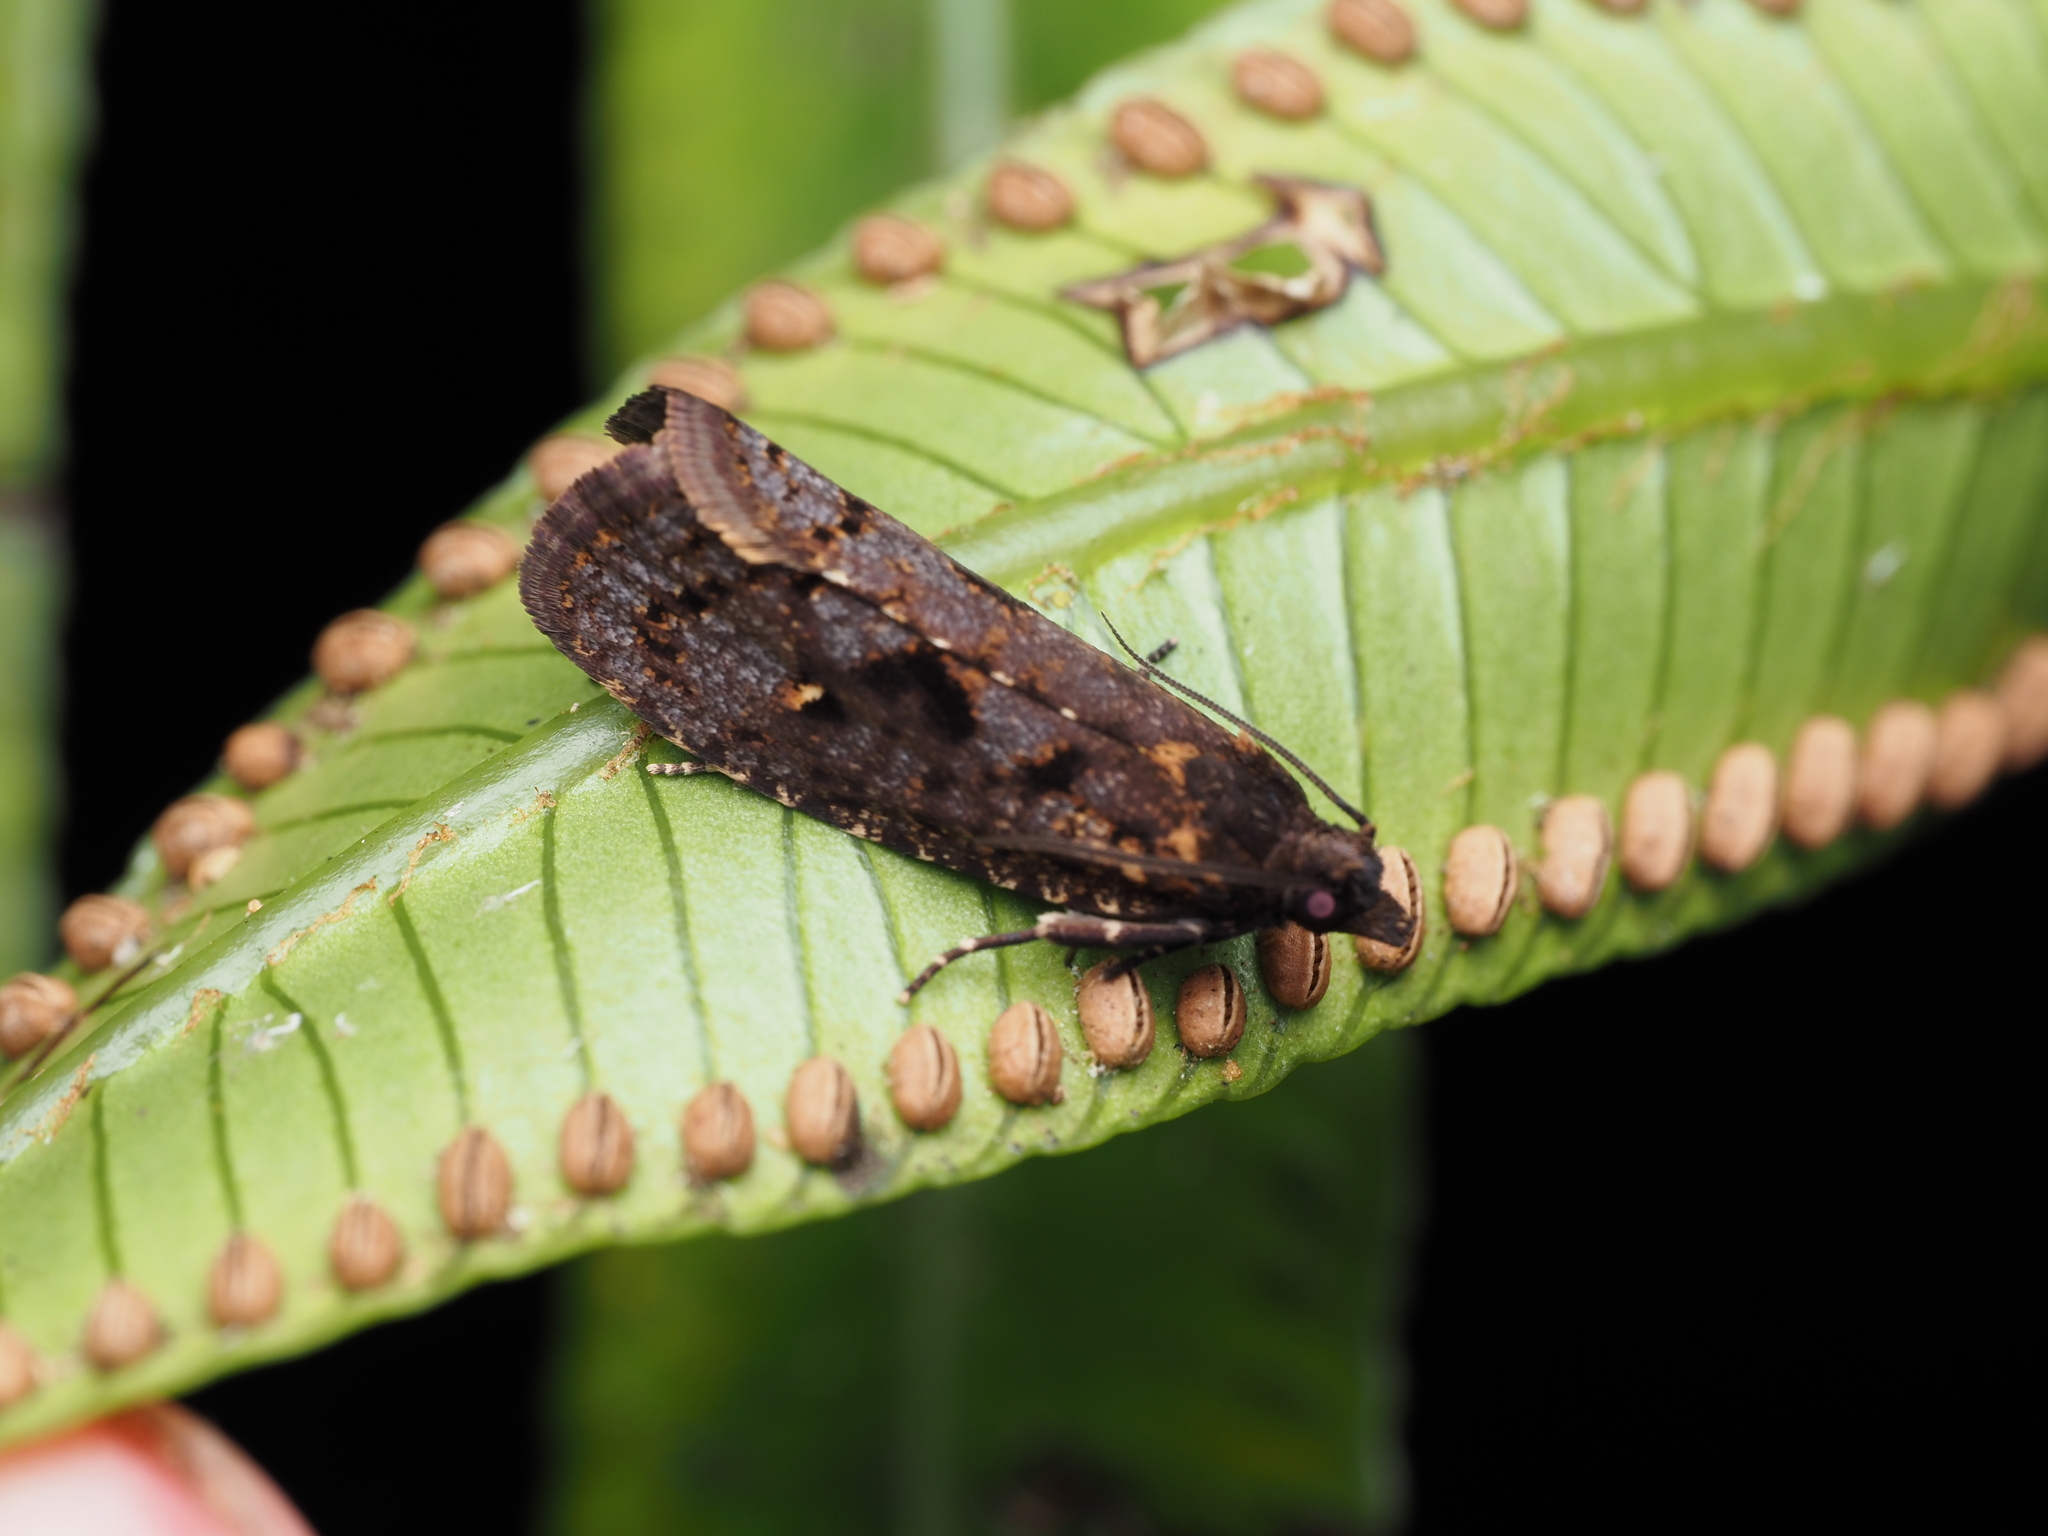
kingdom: Animalia
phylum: Arthropoda
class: Insecta
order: Lepidoptera
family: Tortricidae
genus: Cryptaspasma
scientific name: Cryptaspasma querula
